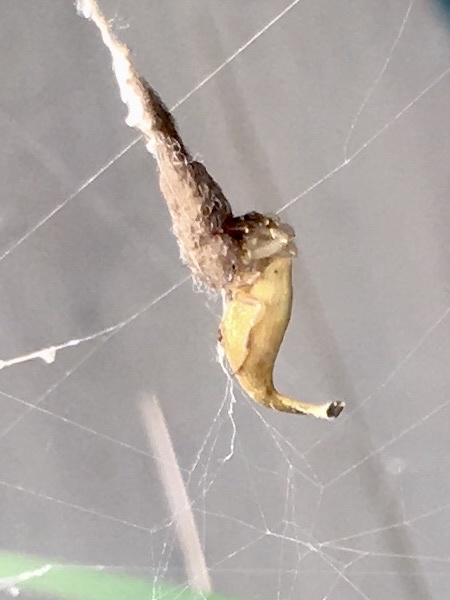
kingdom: Animalia
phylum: Arthropoda
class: Arachnida
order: Araneae
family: Araneidae
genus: Arachnura
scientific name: Arachnura feredayi
